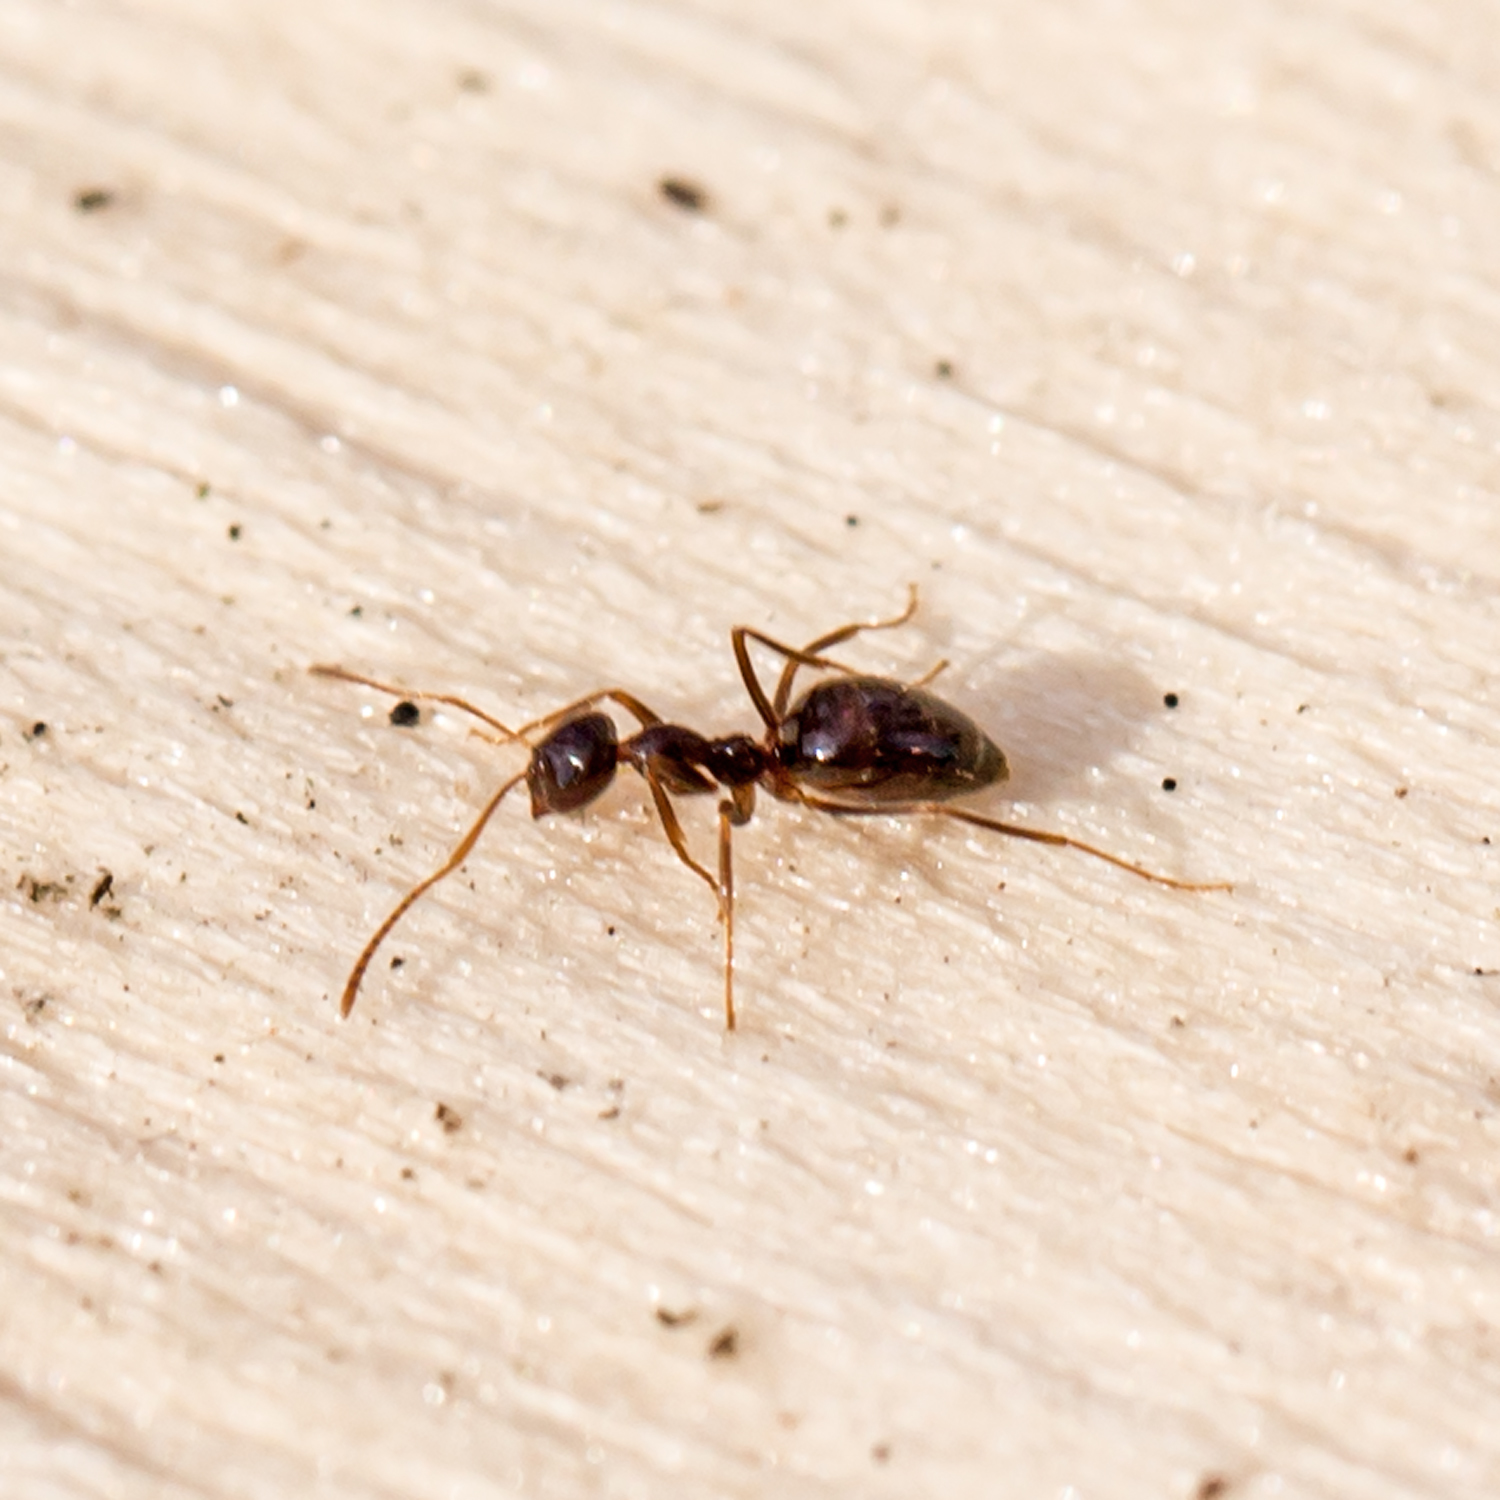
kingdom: Animalia
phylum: Arthropoda
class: Insecta
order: Hymenoptera
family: Formicidae
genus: Prenolepis
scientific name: Prenolepis imparis
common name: Small honey ant
